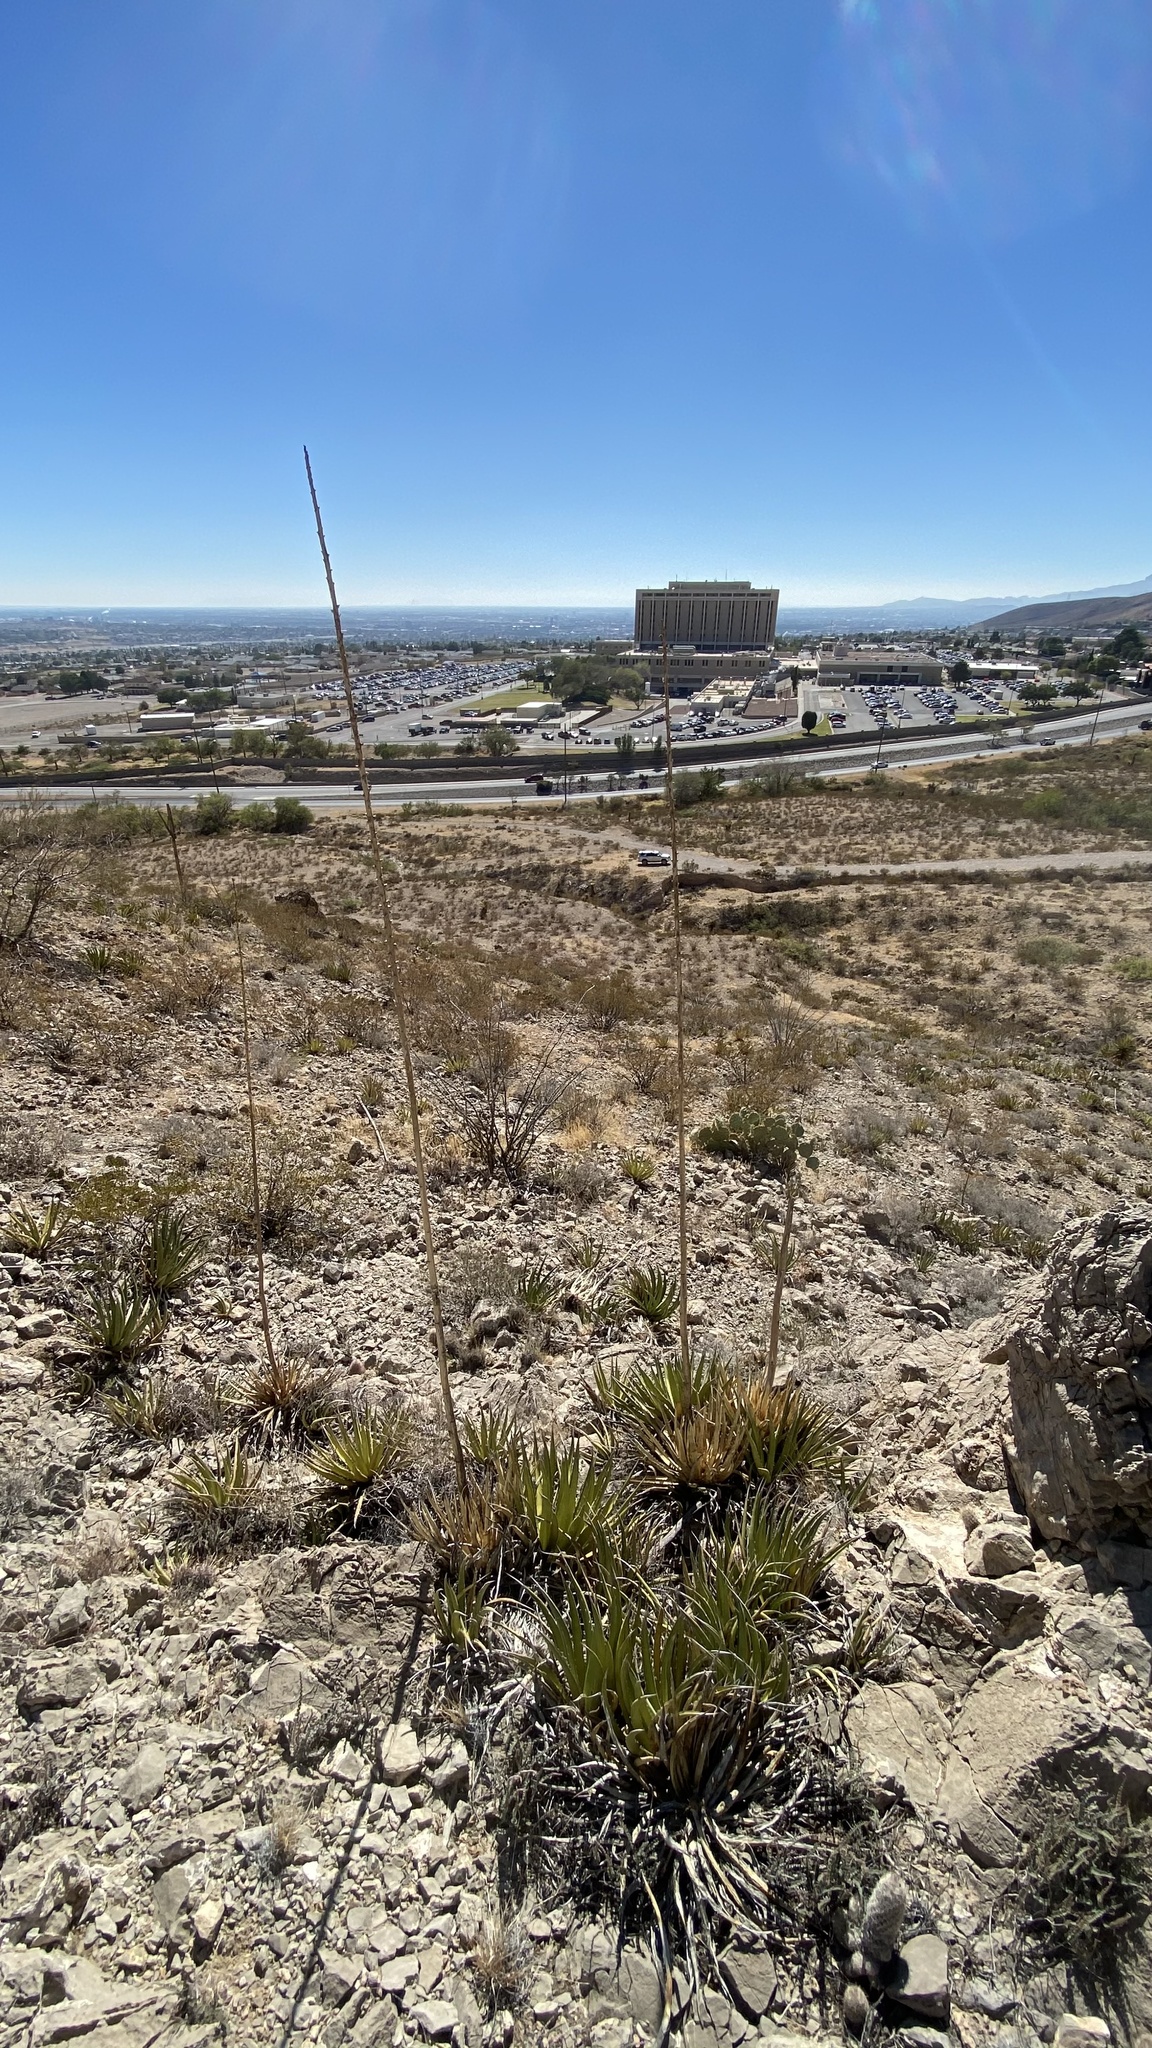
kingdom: Plantae
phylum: Tracheophyta
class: Liliopsida
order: Asparagales
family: Asparagaceae
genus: Agave
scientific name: Agave lechuguilla
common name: Lecheguilla agave
